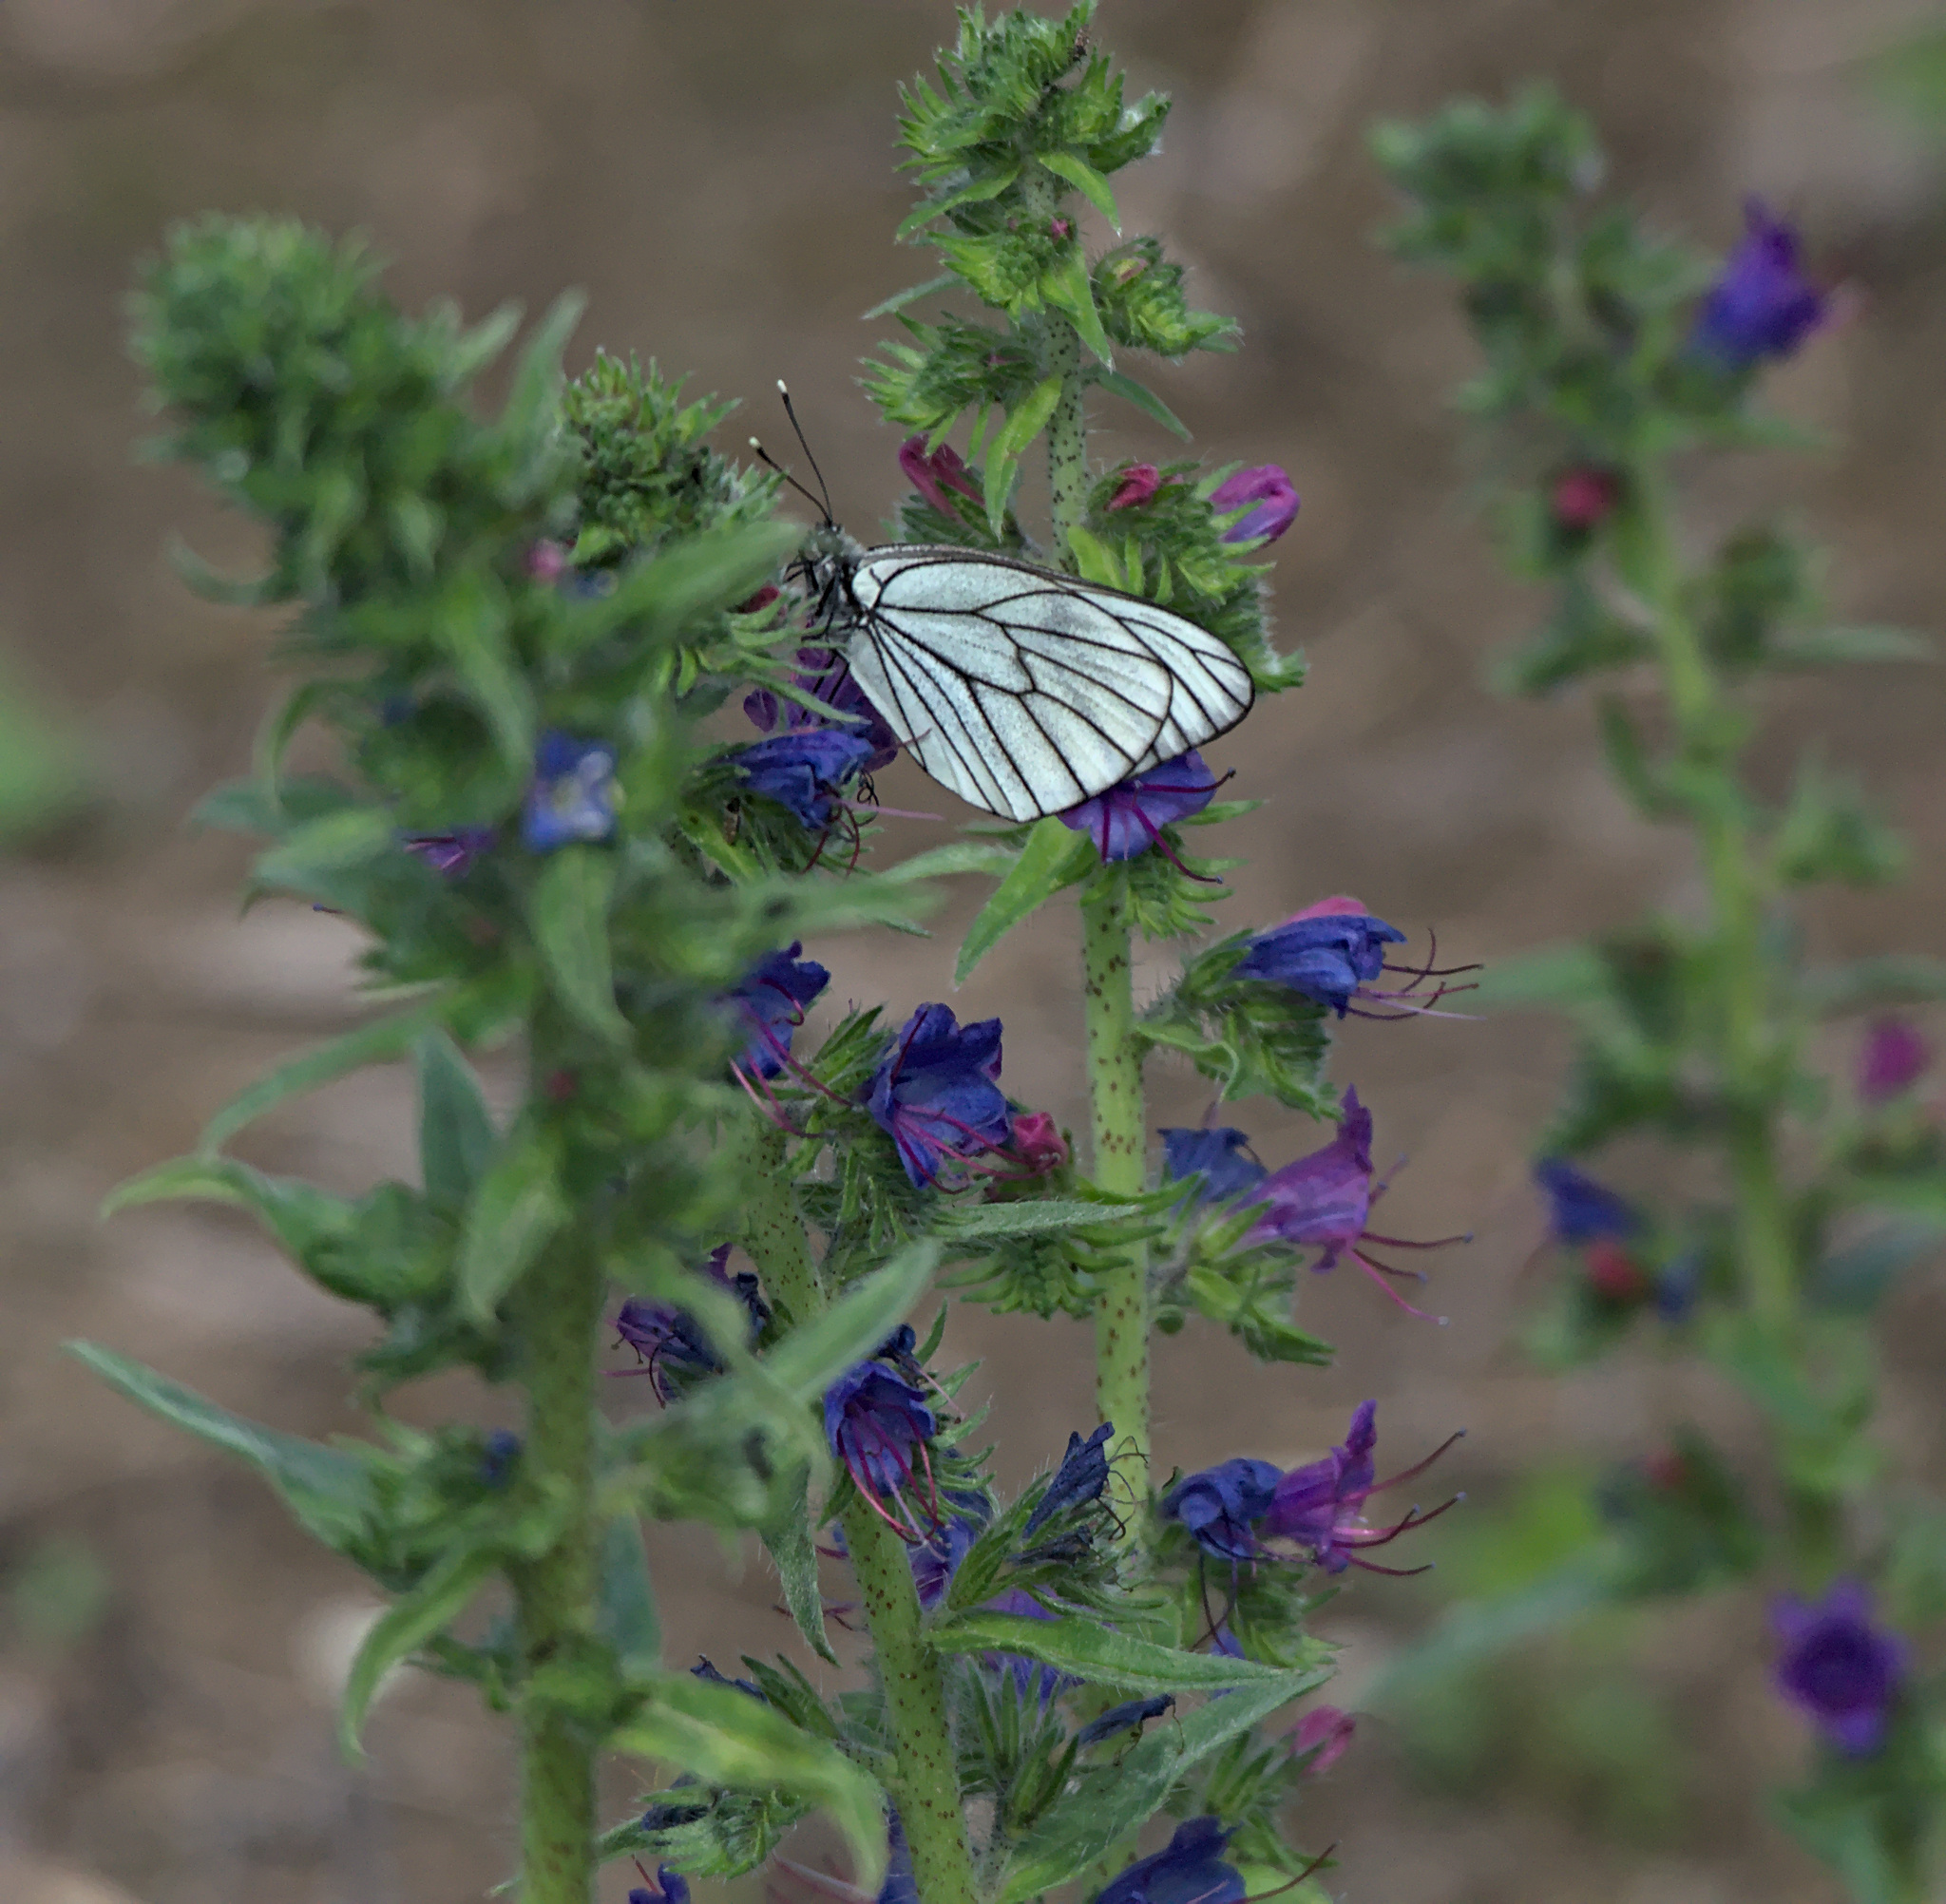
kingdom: Animalia
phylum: Arthropoda
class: Insecta
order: Lepidoptera
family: Pieridae
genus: Aporia
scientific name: Aporia crataegi
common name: Black-veined white
